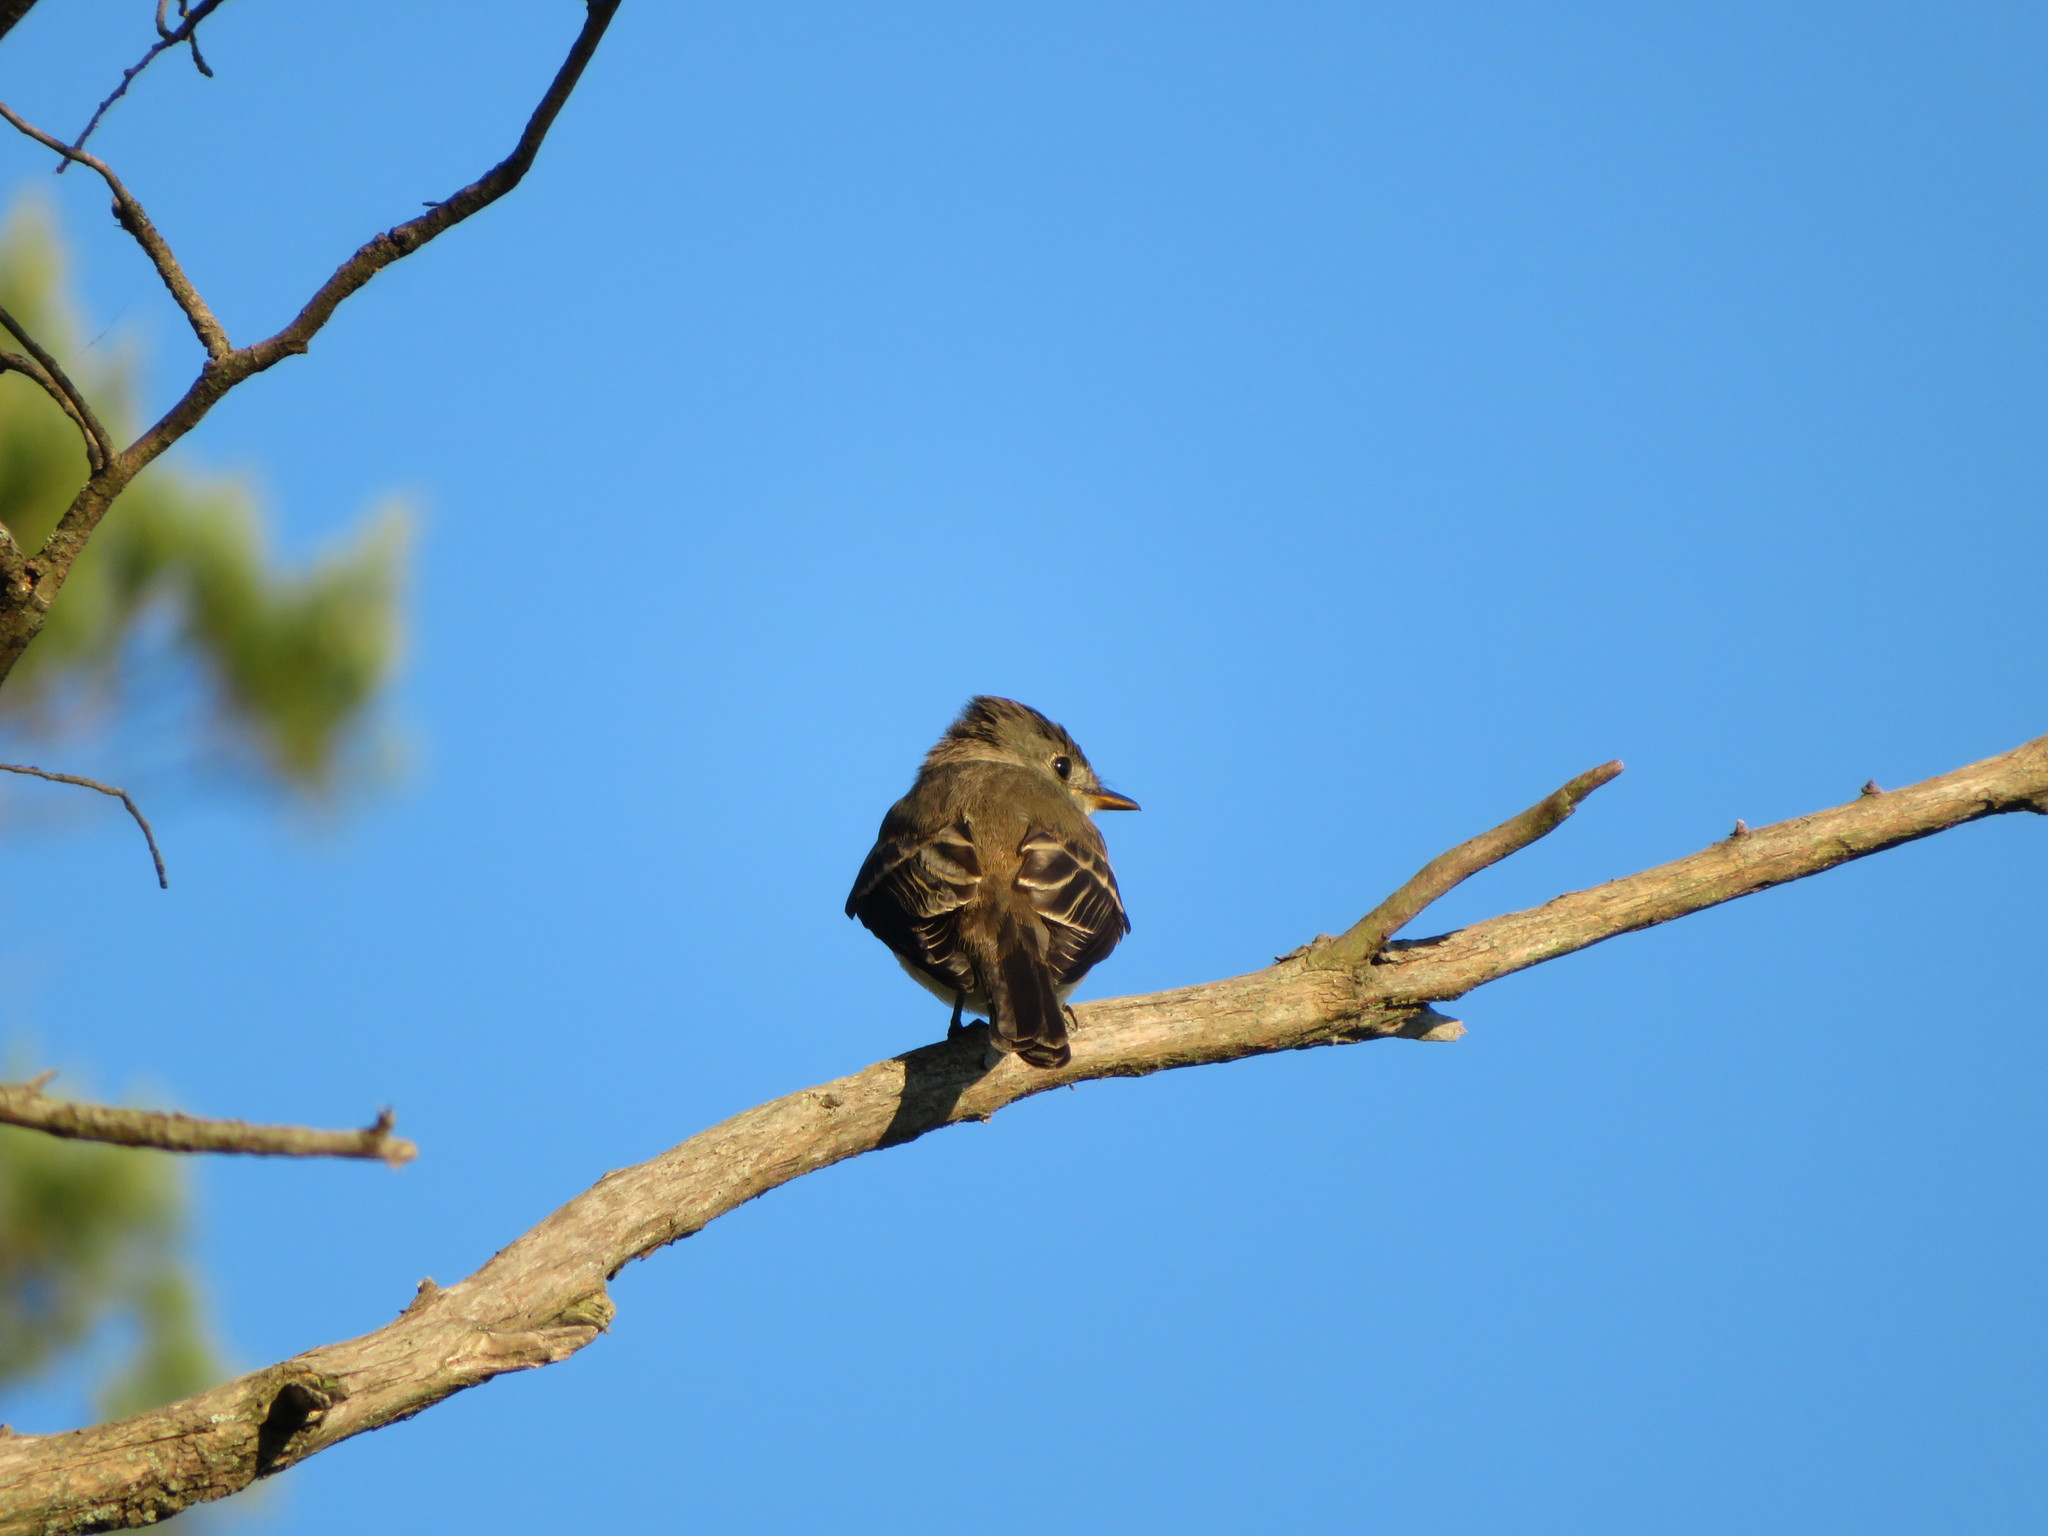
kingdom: Animalia
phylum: Chordata
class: Aves
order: Passeriformes
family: Tyrannidae
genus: Contopus
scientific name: Contopus virens
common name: Eastern wood-pewee
